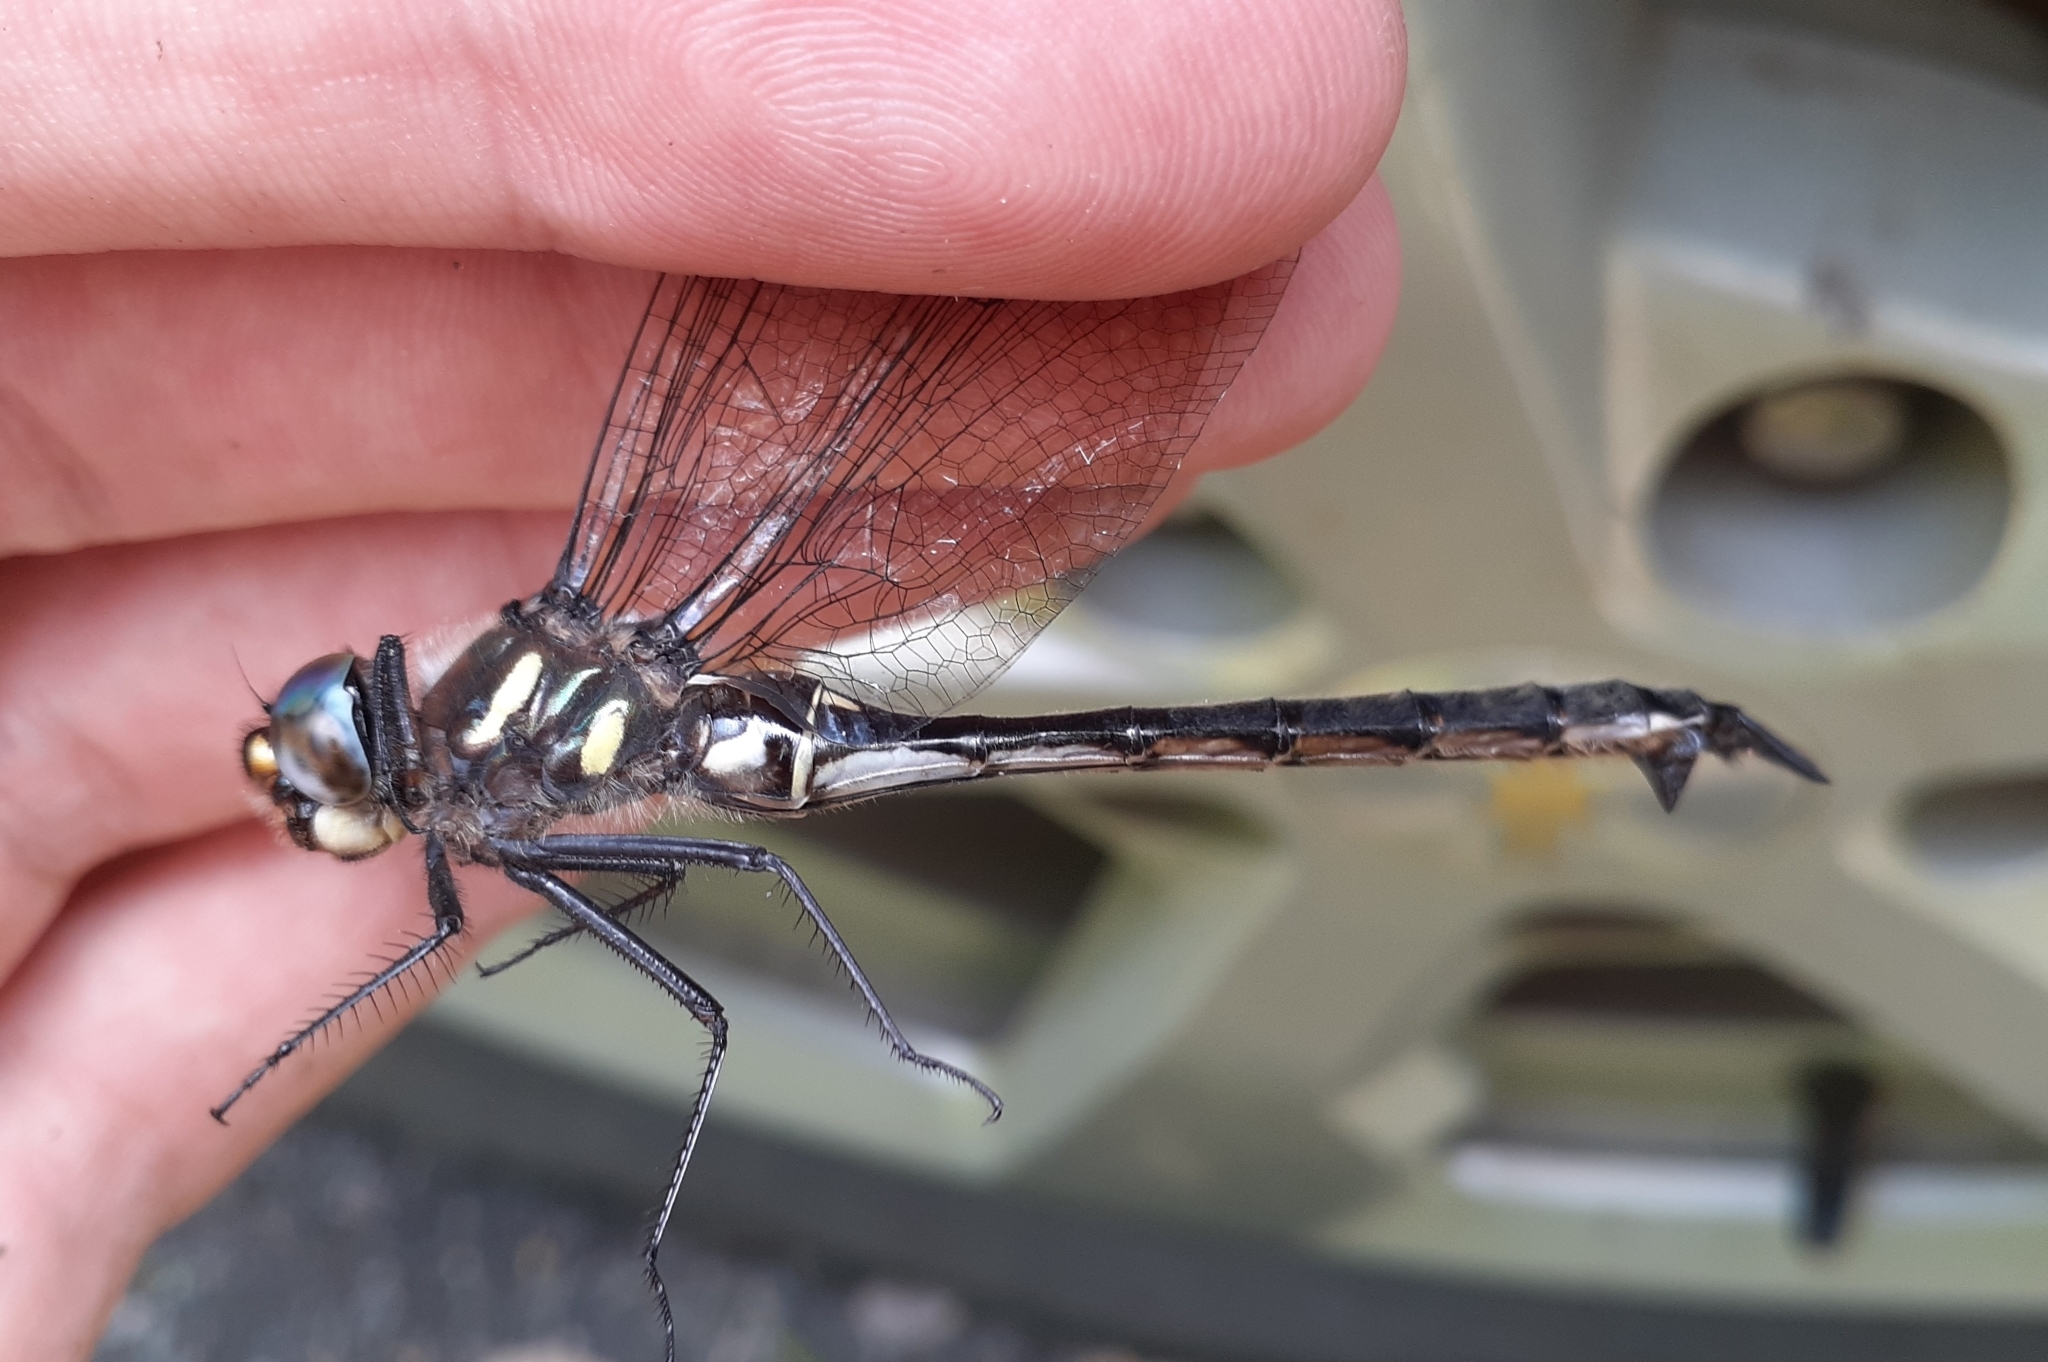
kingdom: Animalia
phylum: Arthropoda
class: Insecta
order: Odonata
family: Corduliidae
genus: Somatochlora
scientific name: Somatochlora elongata
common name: Ski-tipped emerald
